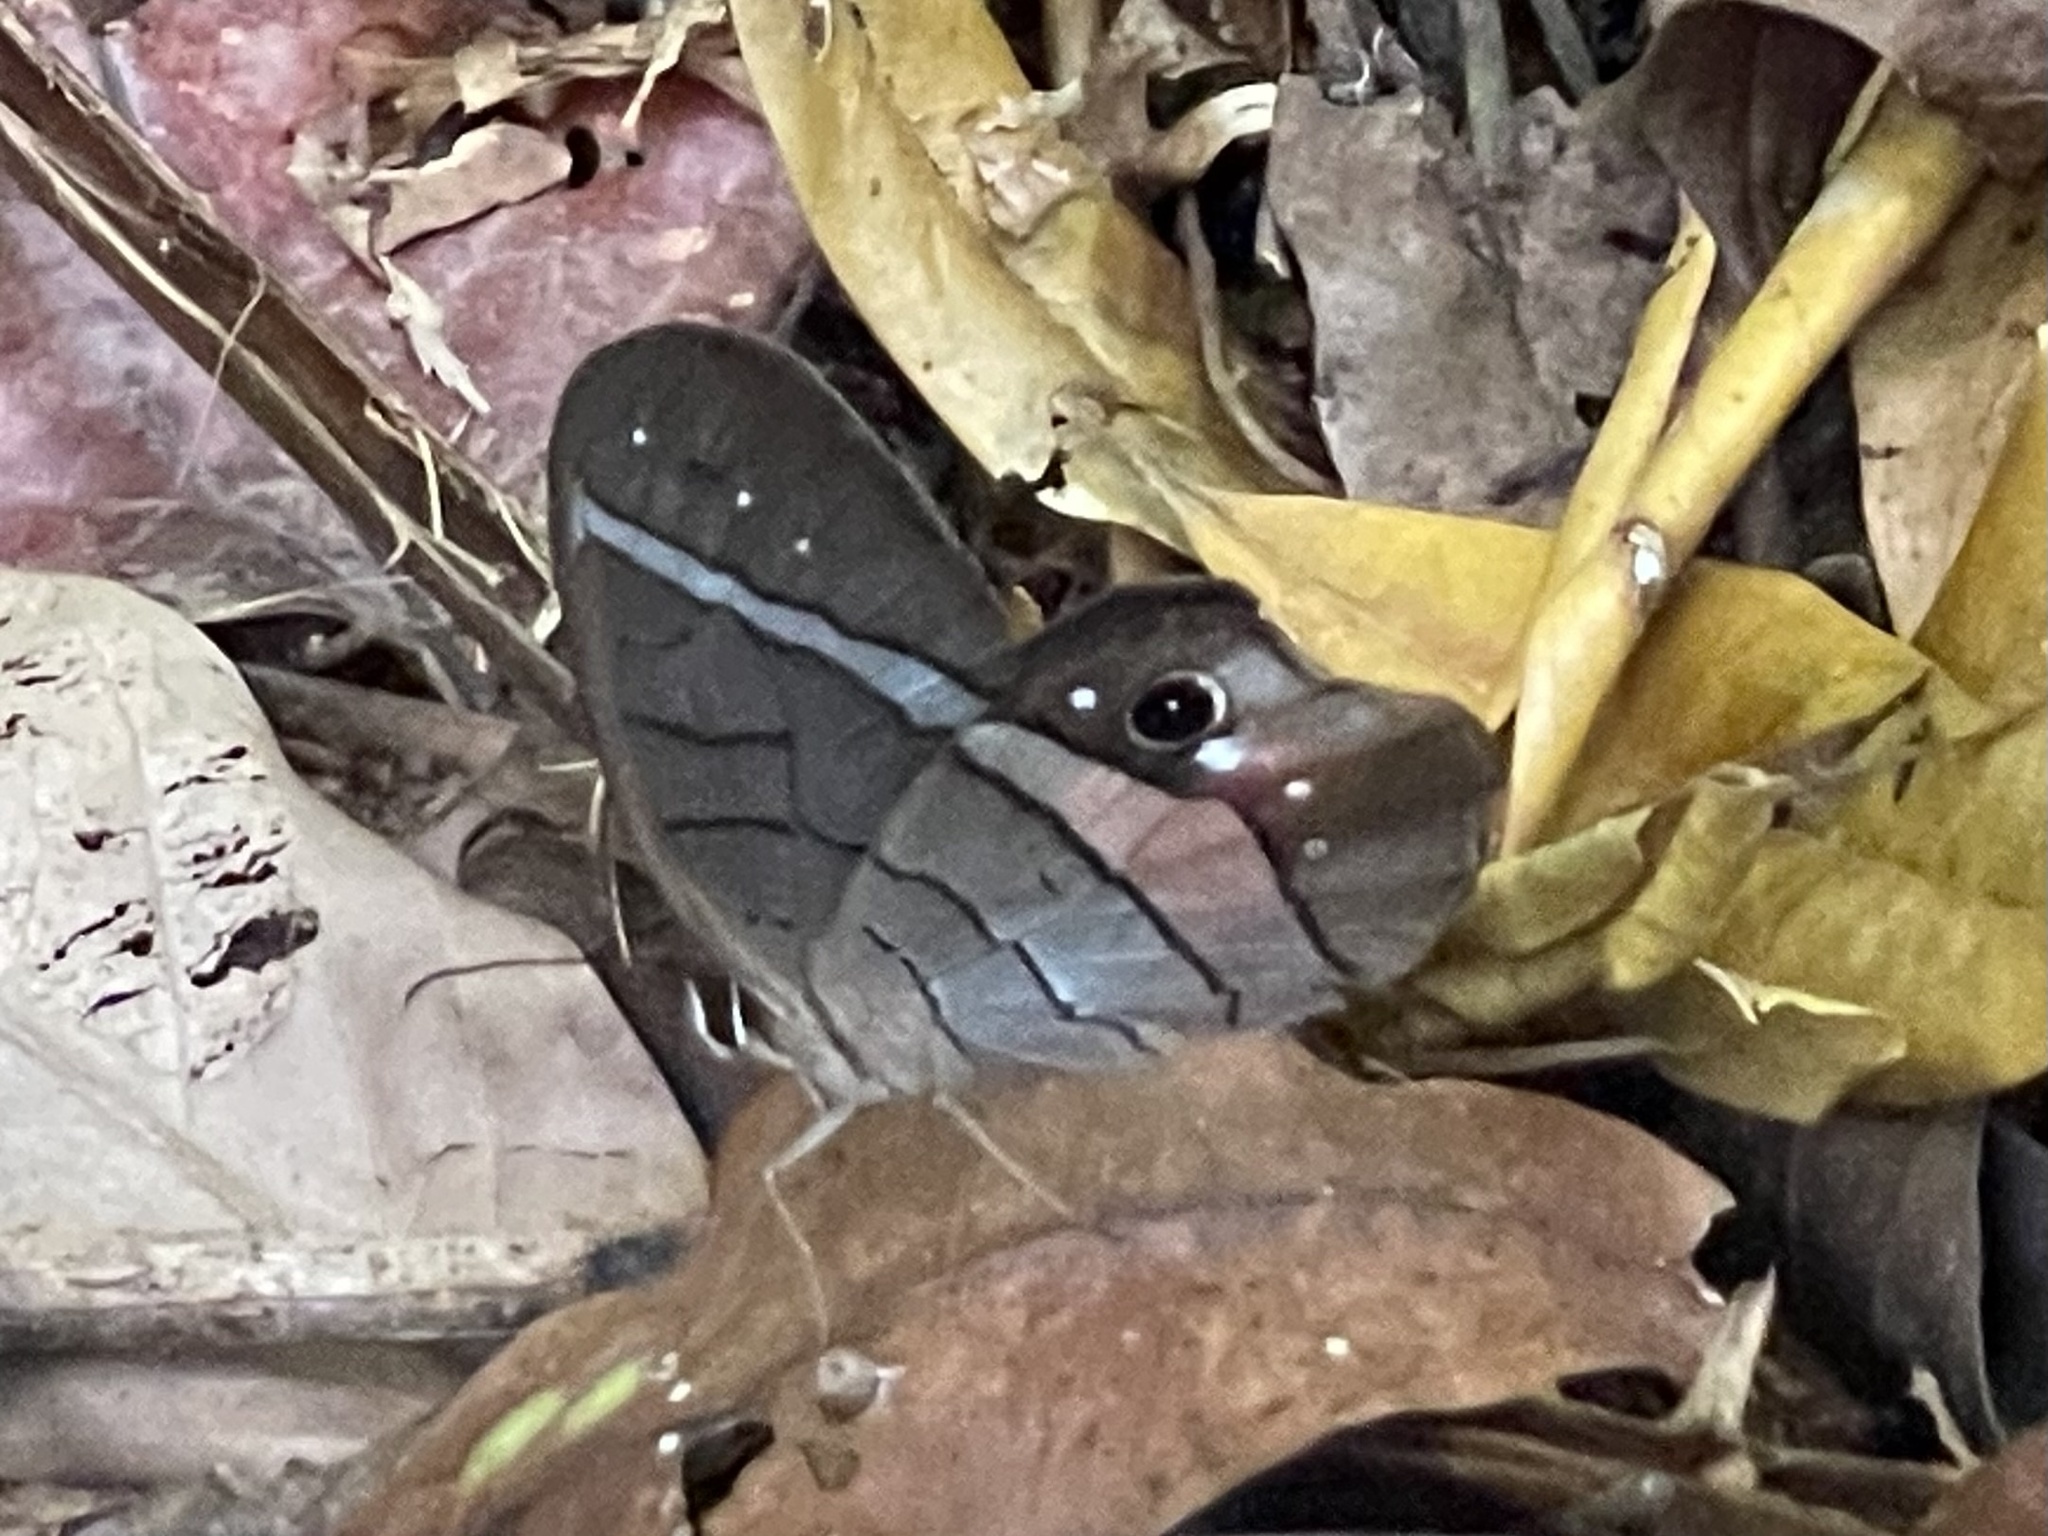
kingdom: Animalia
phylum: Arthropoda
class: Insecta
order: Lepidoptera
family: Nymphalidae
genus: Pierella
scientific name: Pierella helvina
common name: Red-washed satyr
